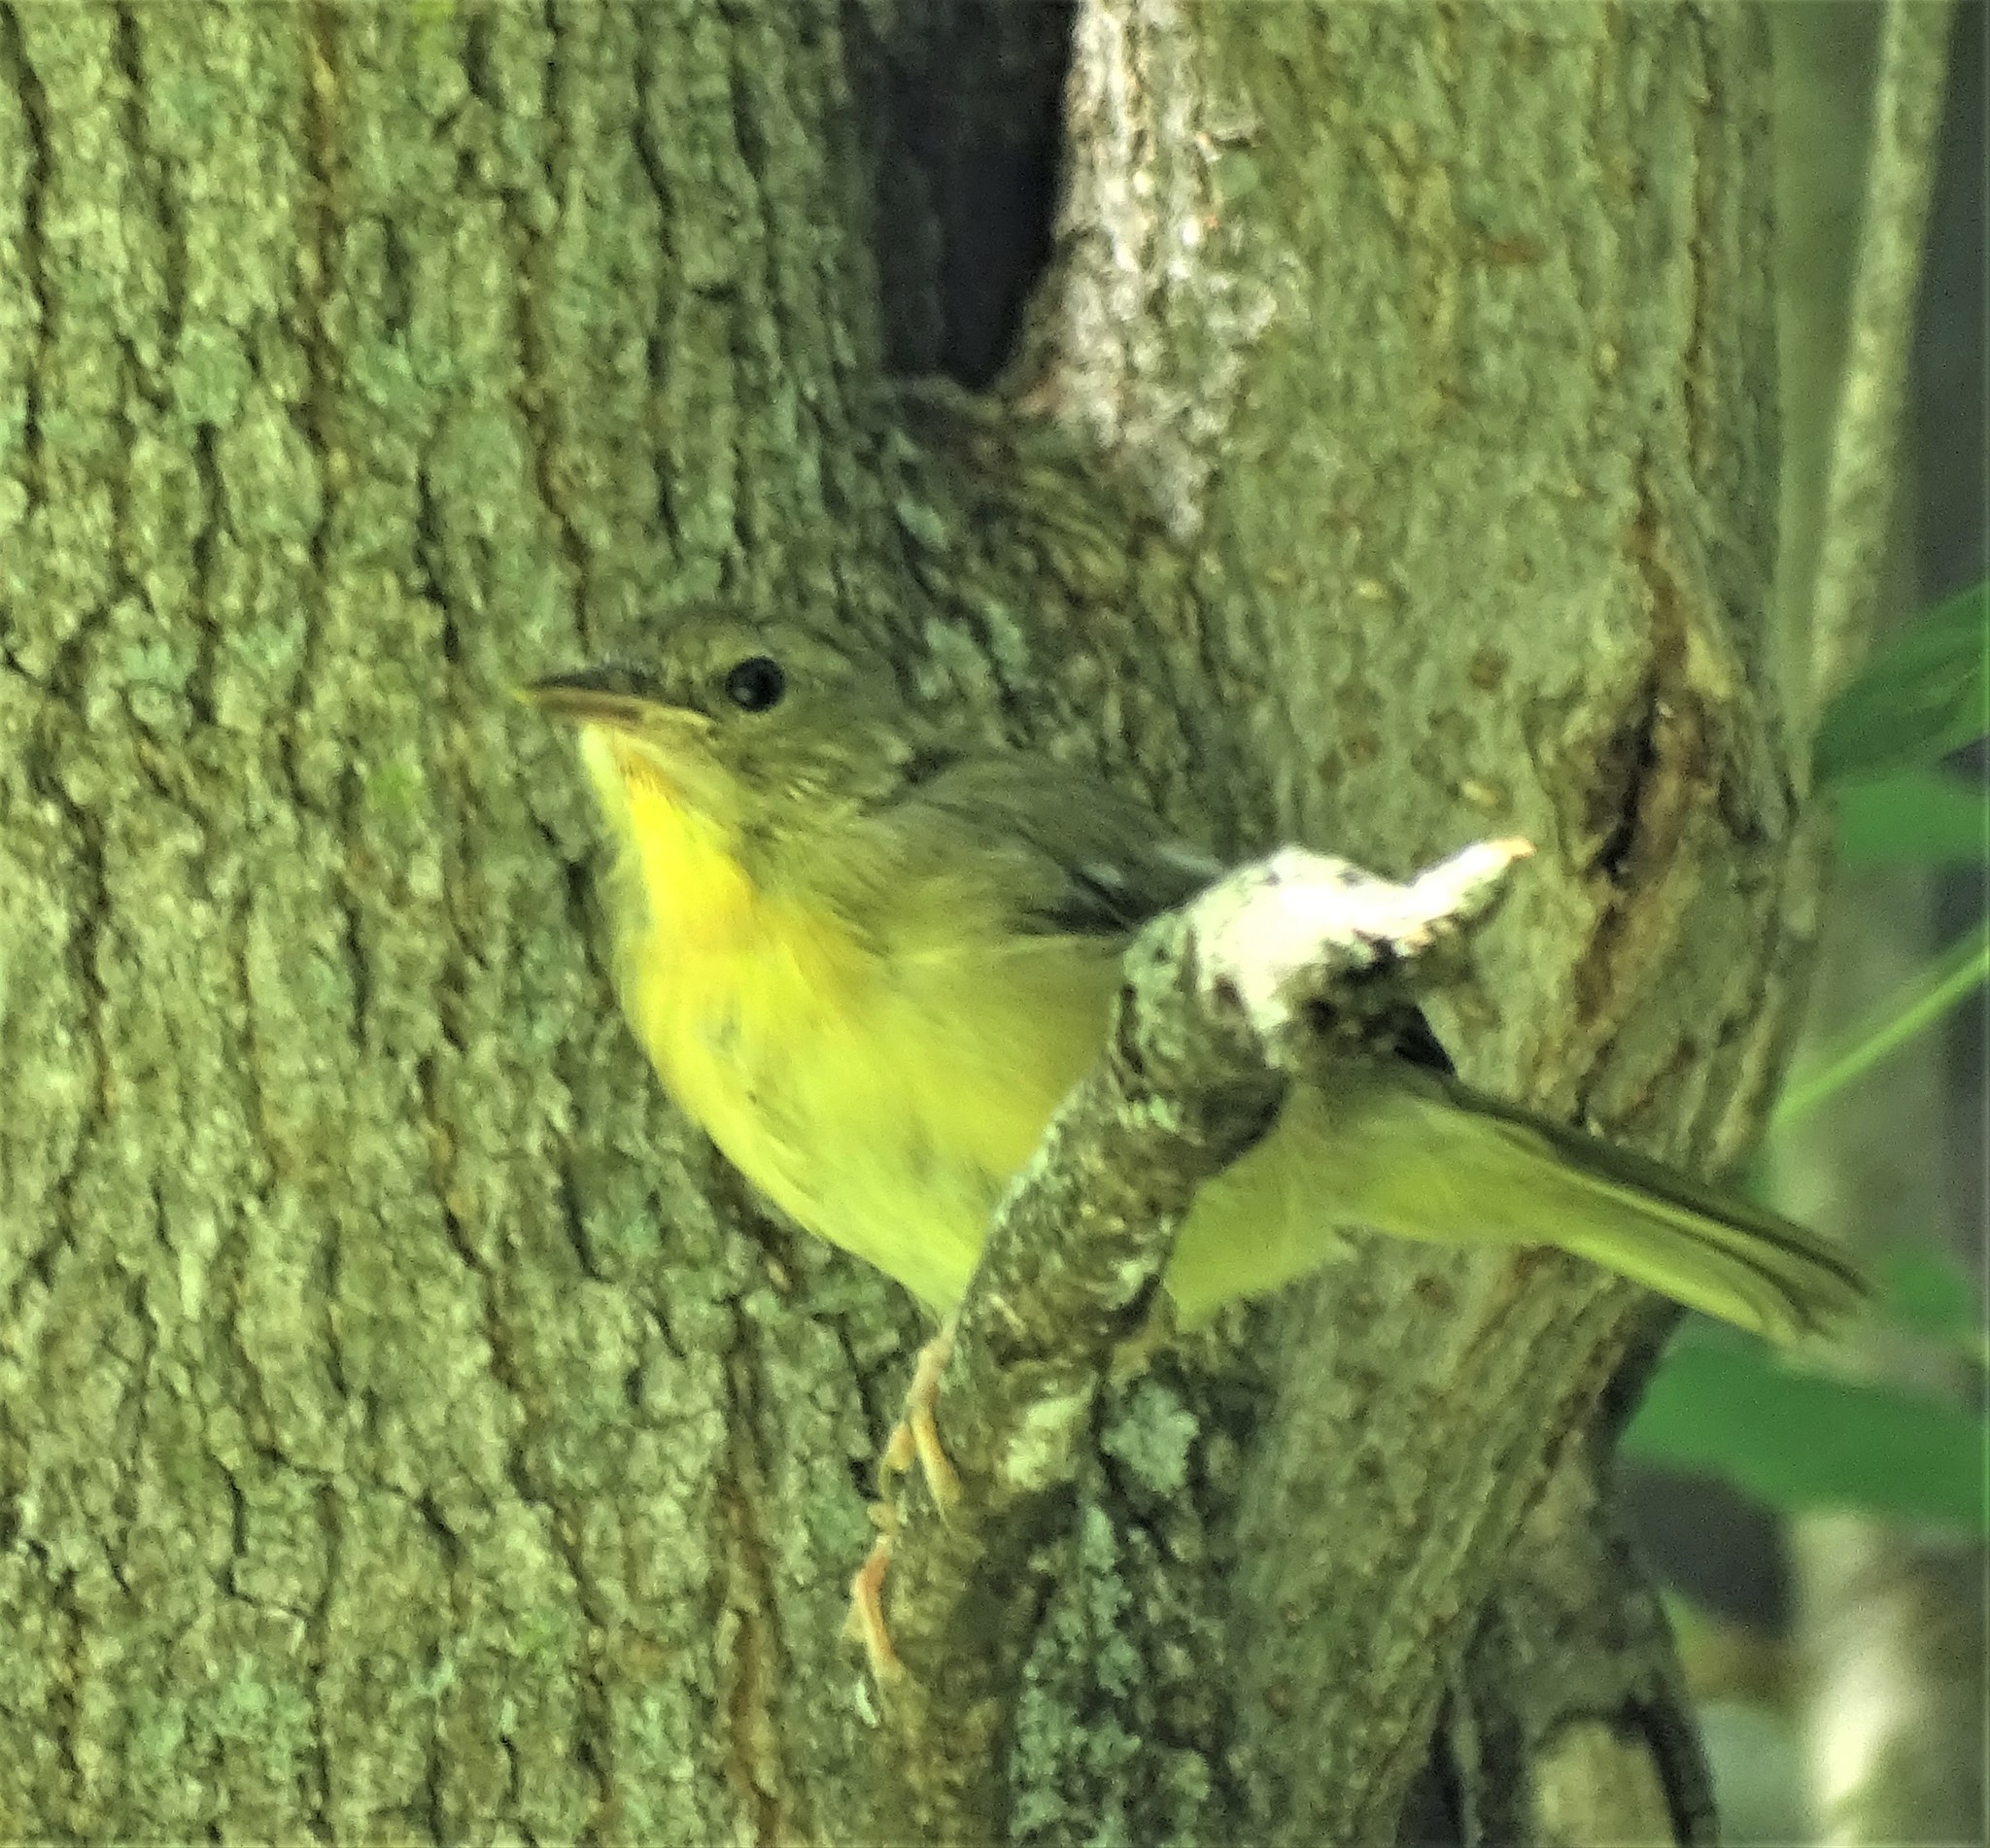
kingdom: Animalia
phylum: Chordata
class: Aves
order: Passeriformes
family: Parulidae
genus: Geothlypis
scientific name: Geothlypis trichas
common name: Common yellowthroat
